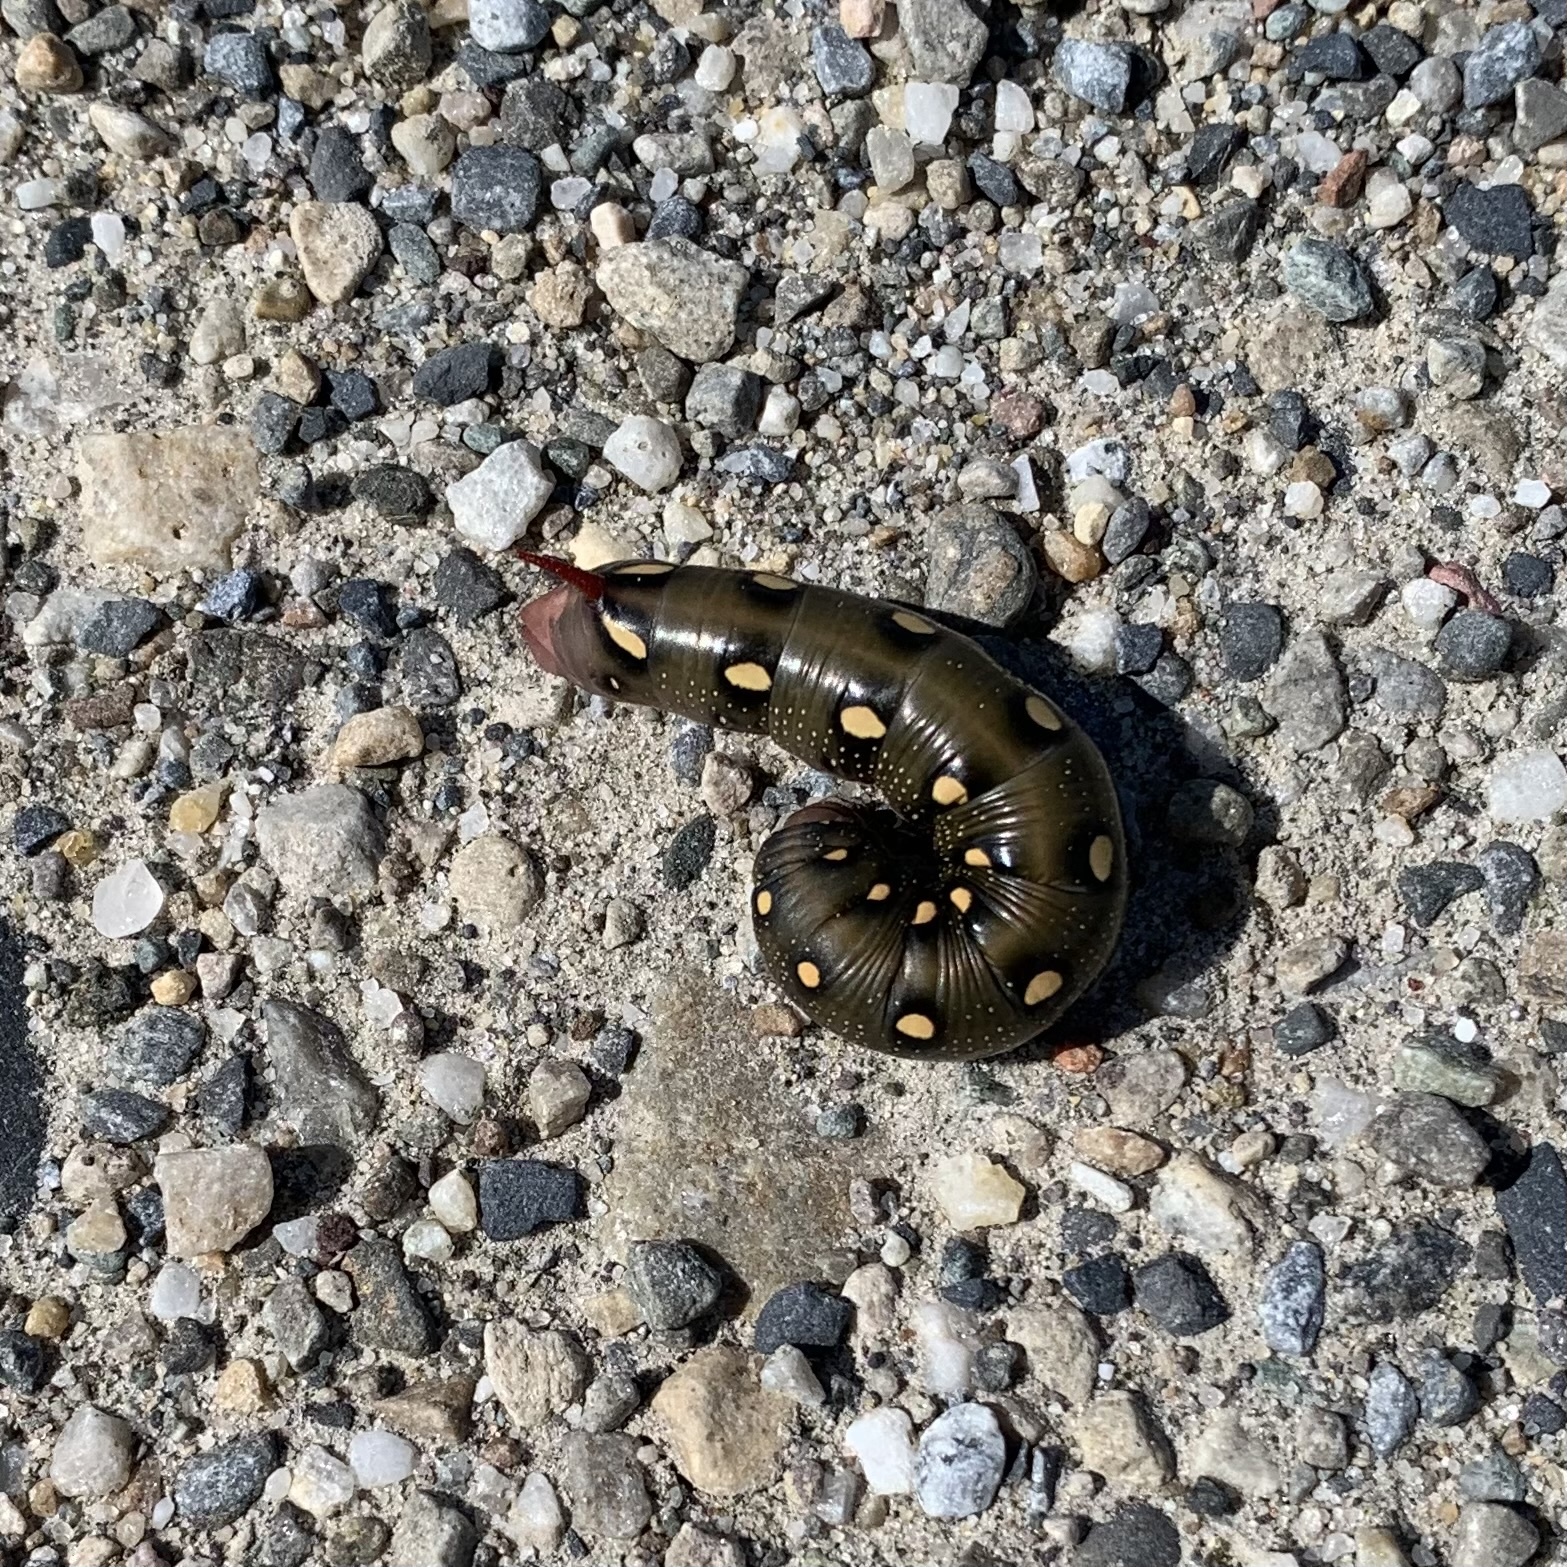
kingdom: Animalia
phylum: Arthropoda
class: Insecta
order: Lepidoptera
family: Sphingidae
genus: Hyles
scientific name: Hyles gallii
